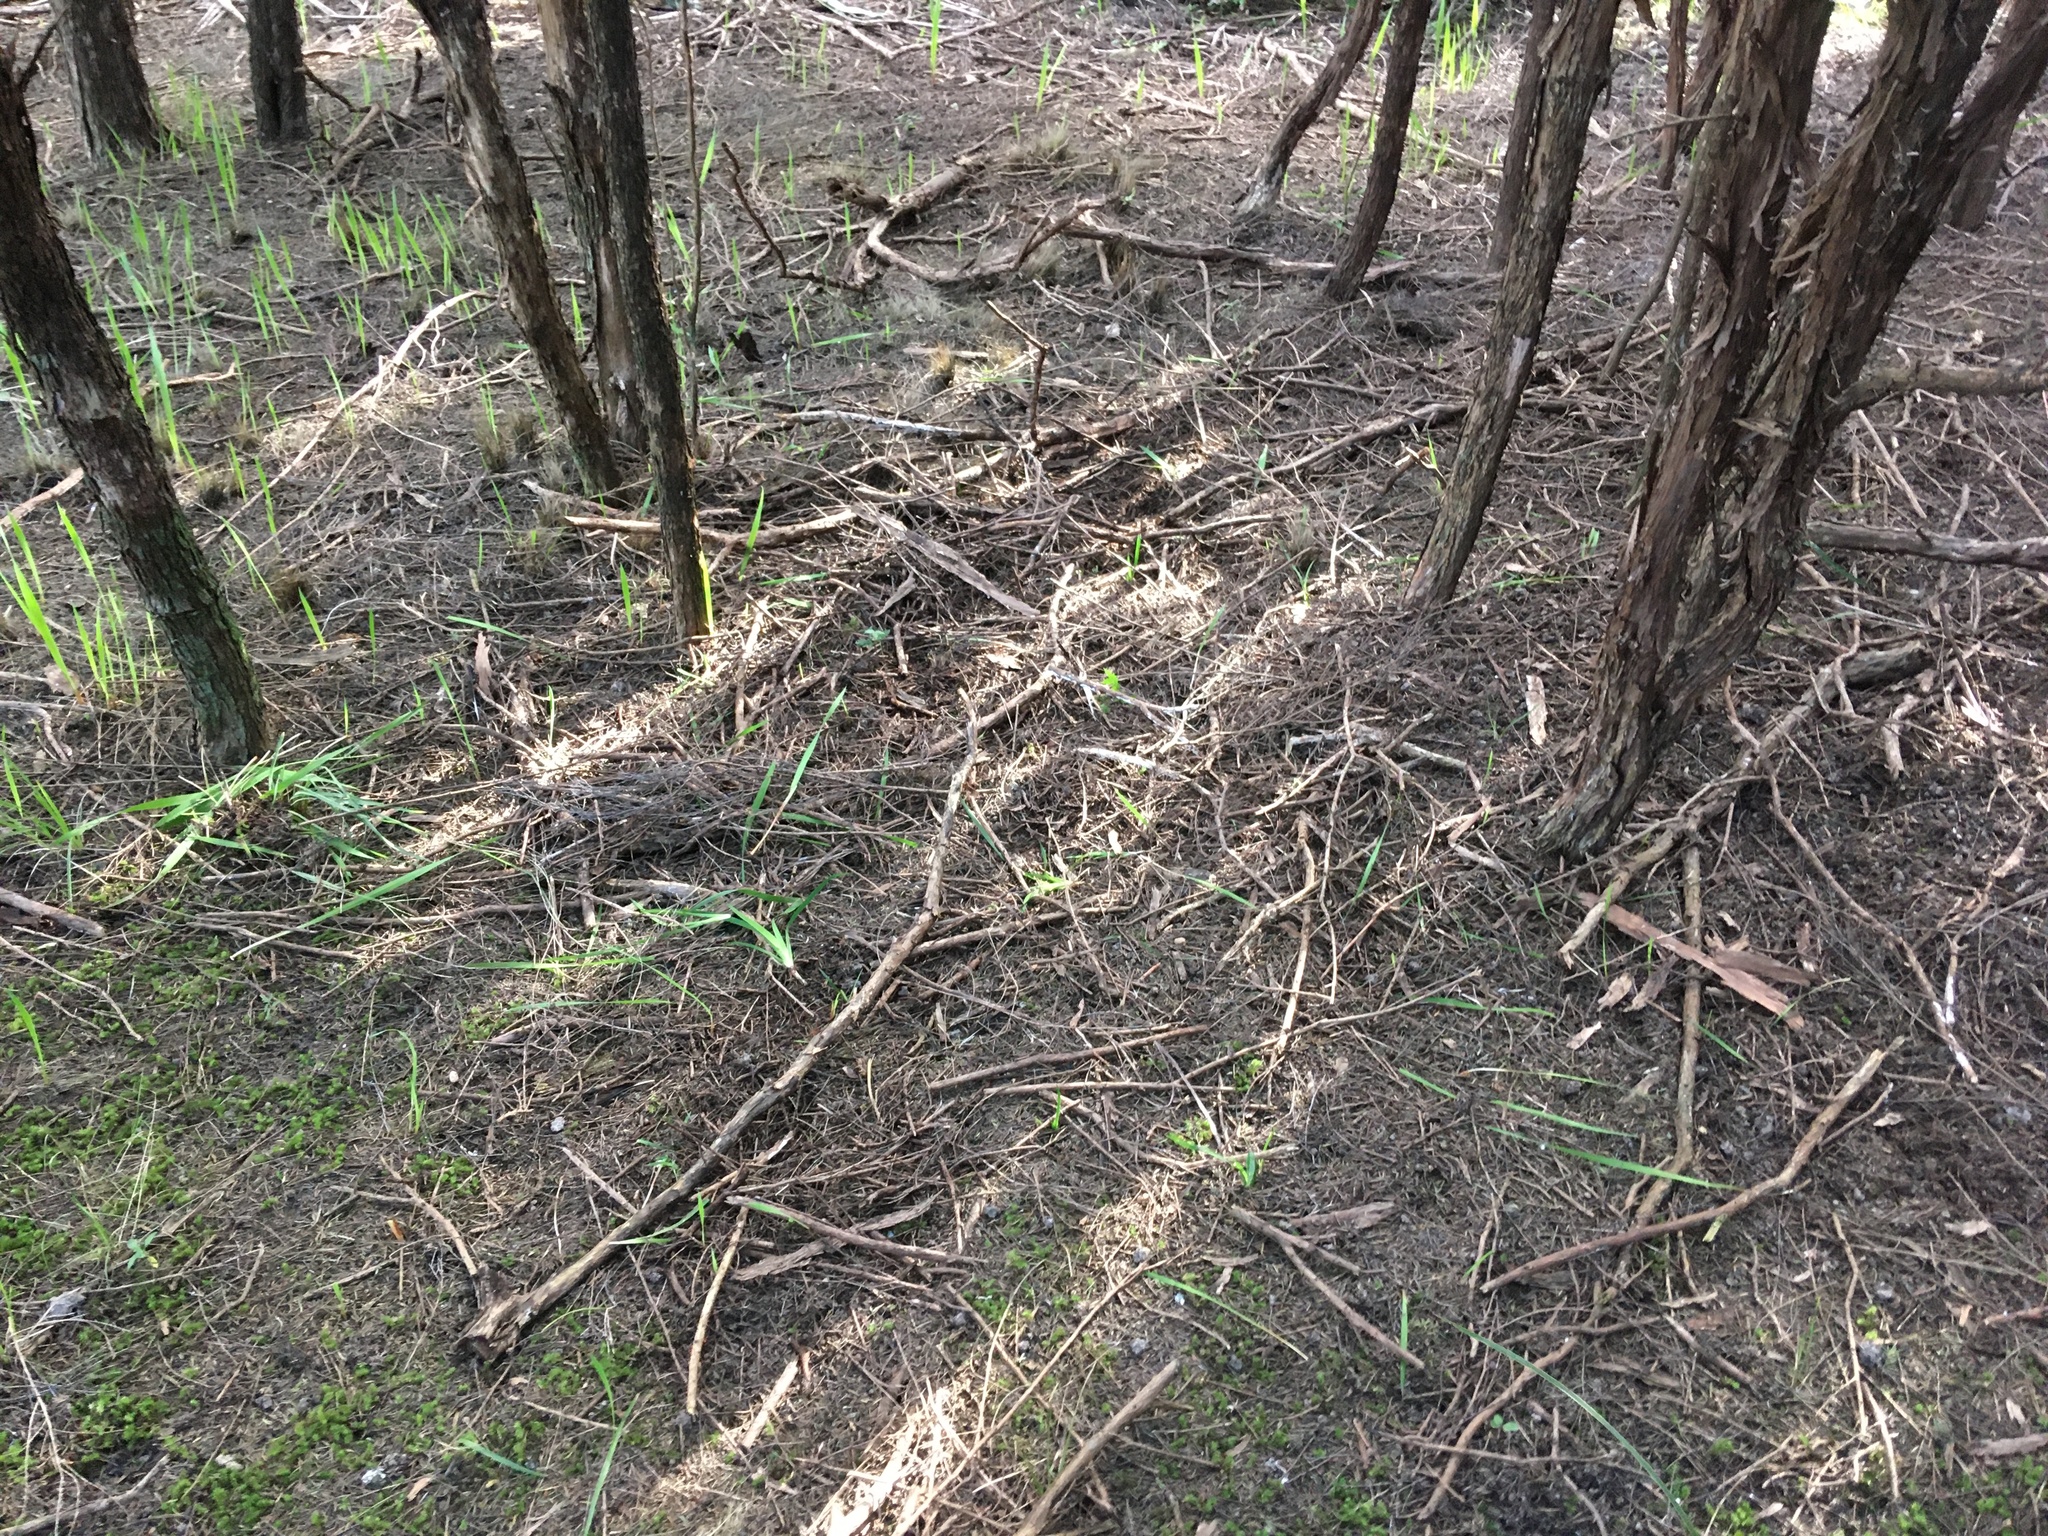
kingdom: Plantae
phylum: Bryophyta
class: Bryopsida
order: Ptychomniales
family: Ptychomniaceae
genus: Ptychomnion
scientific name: Ptychomnion aciculare
